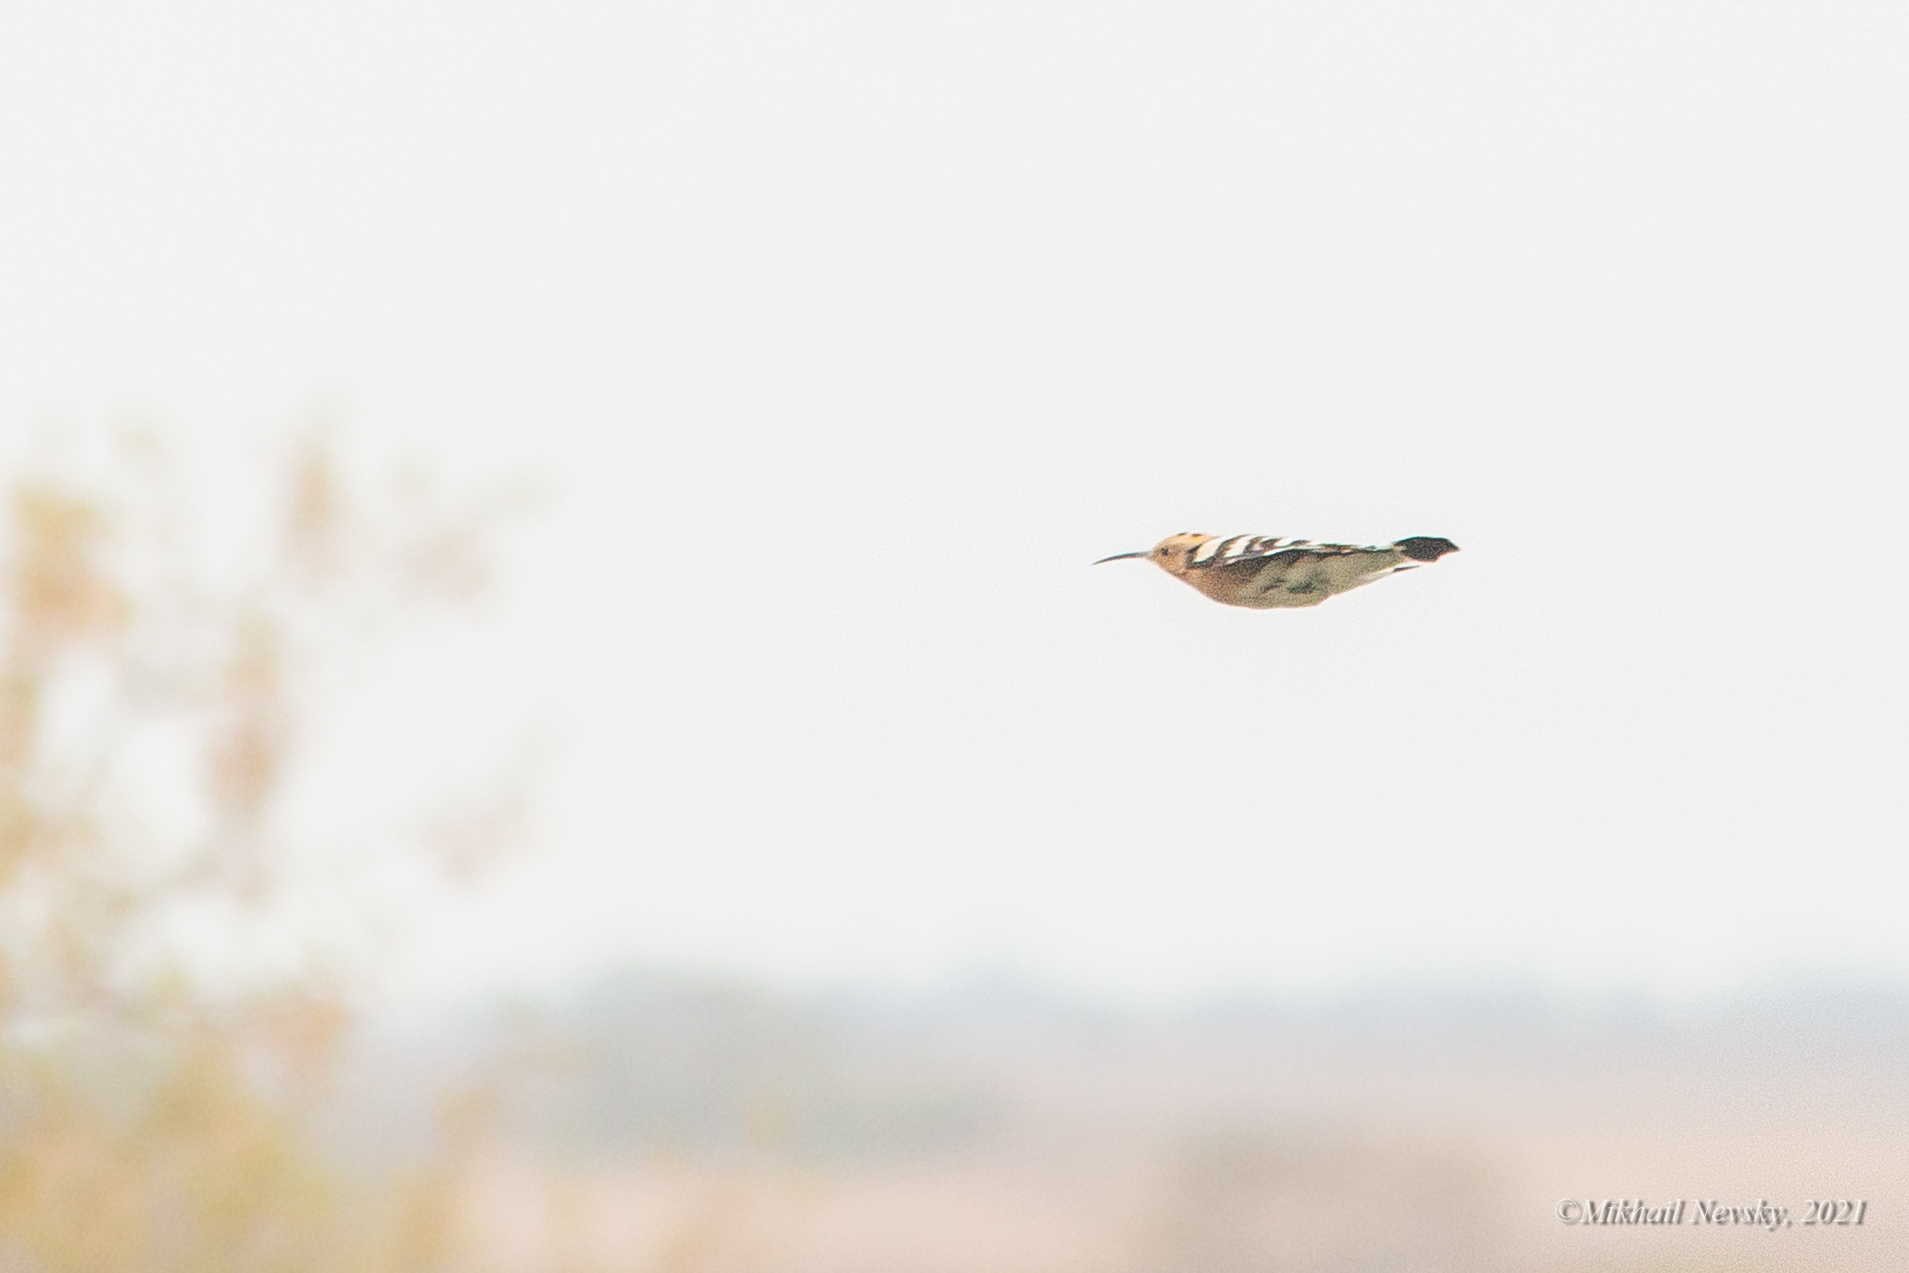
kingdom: Animalia
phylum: Chordata
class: Aves
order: Bucerotiformes
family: Upupidae
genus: Upupa
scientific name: Upupa epops
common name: Eurasian hoopoe
